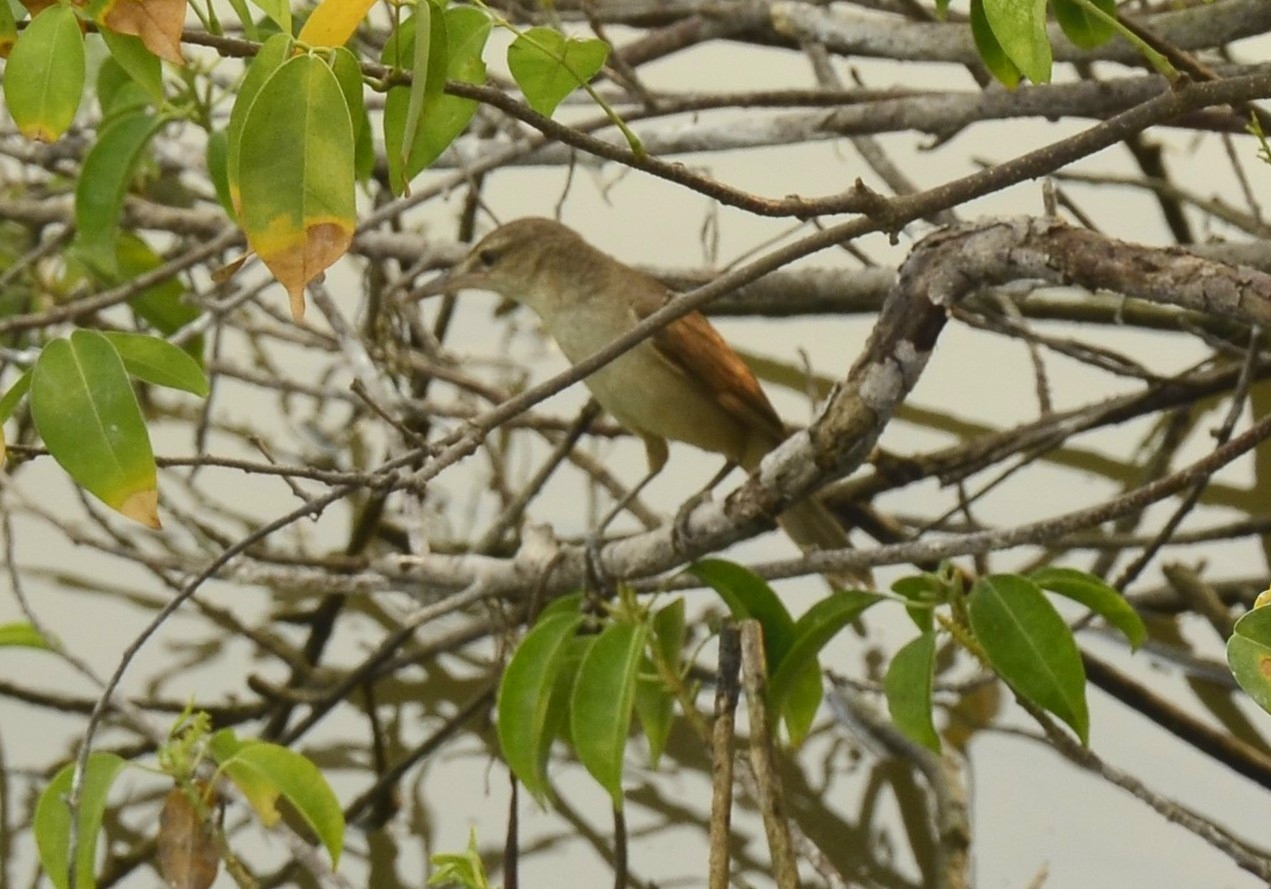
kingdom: Animalia
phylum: Chordata
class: Aves
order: Passeriformes
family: Acrocephalidae
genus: Acrocephalus
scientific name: Acrocephalus stentoreus
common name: Clamorous reed warbler
